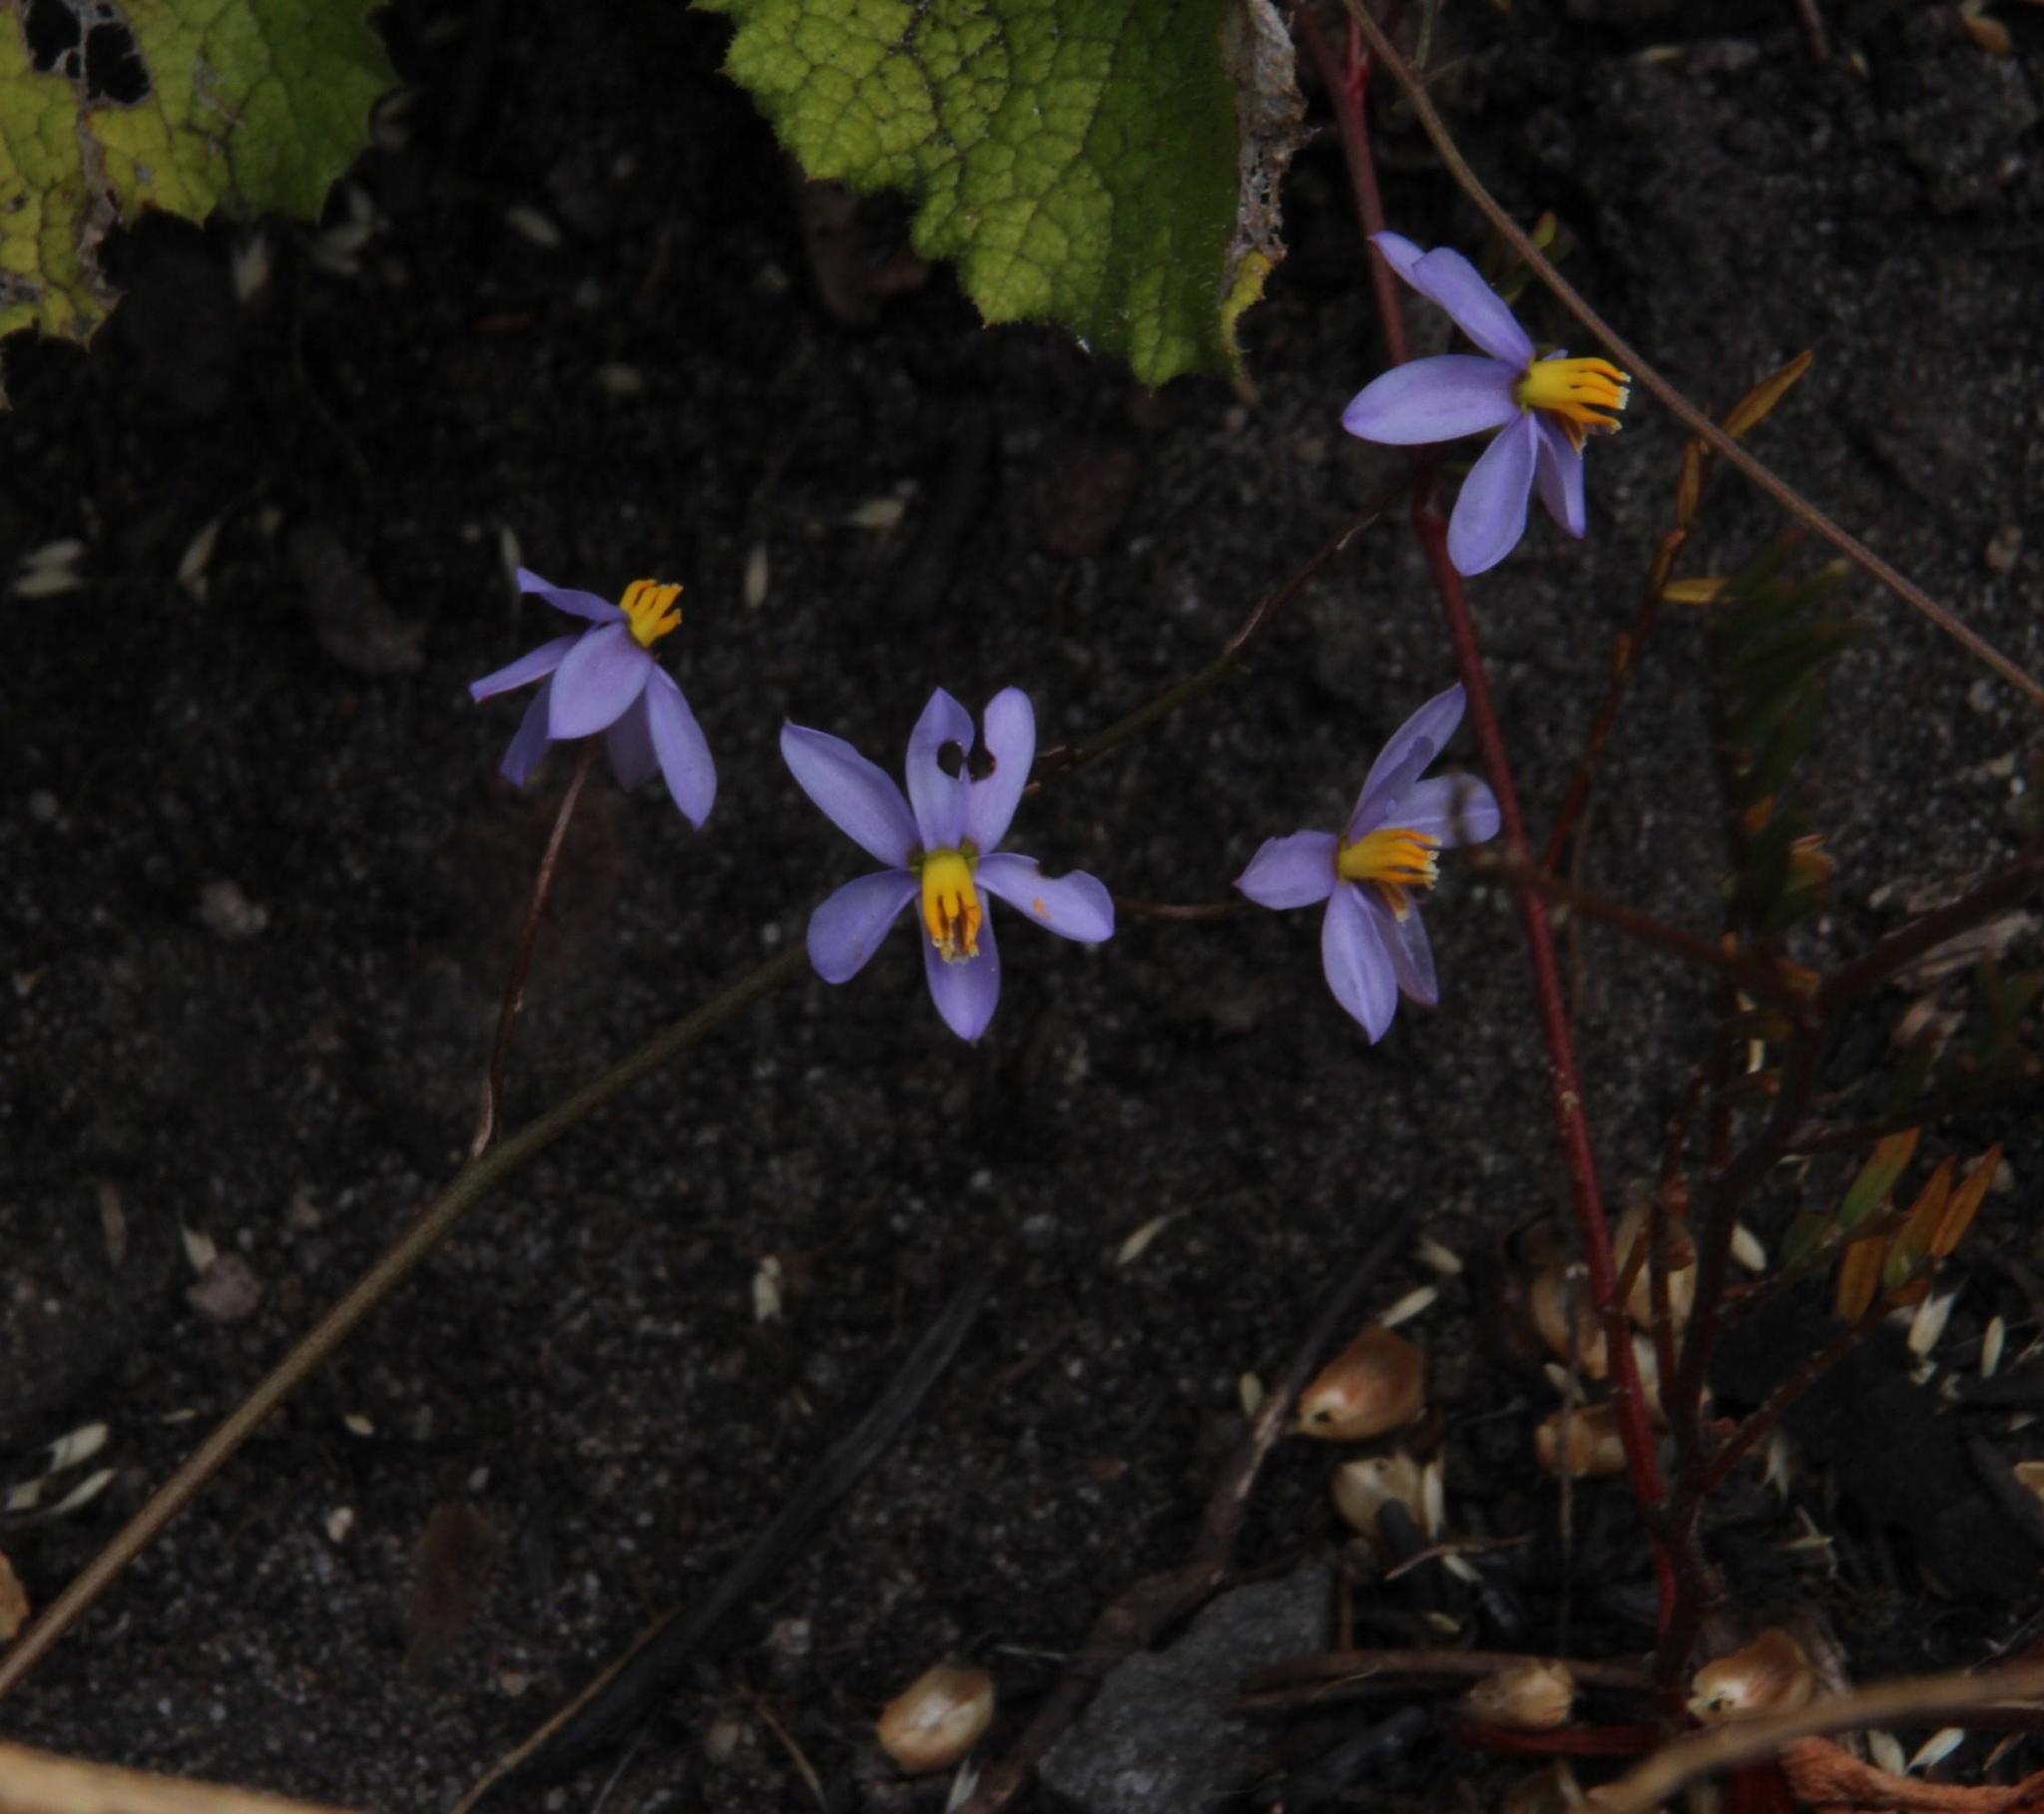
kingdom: Plantae
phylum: Tracheophyta
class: Liliopsida
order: Asparagales
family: Tecophilaeaceae
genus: Cyanella
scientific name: Cyanella hyacinthoides
